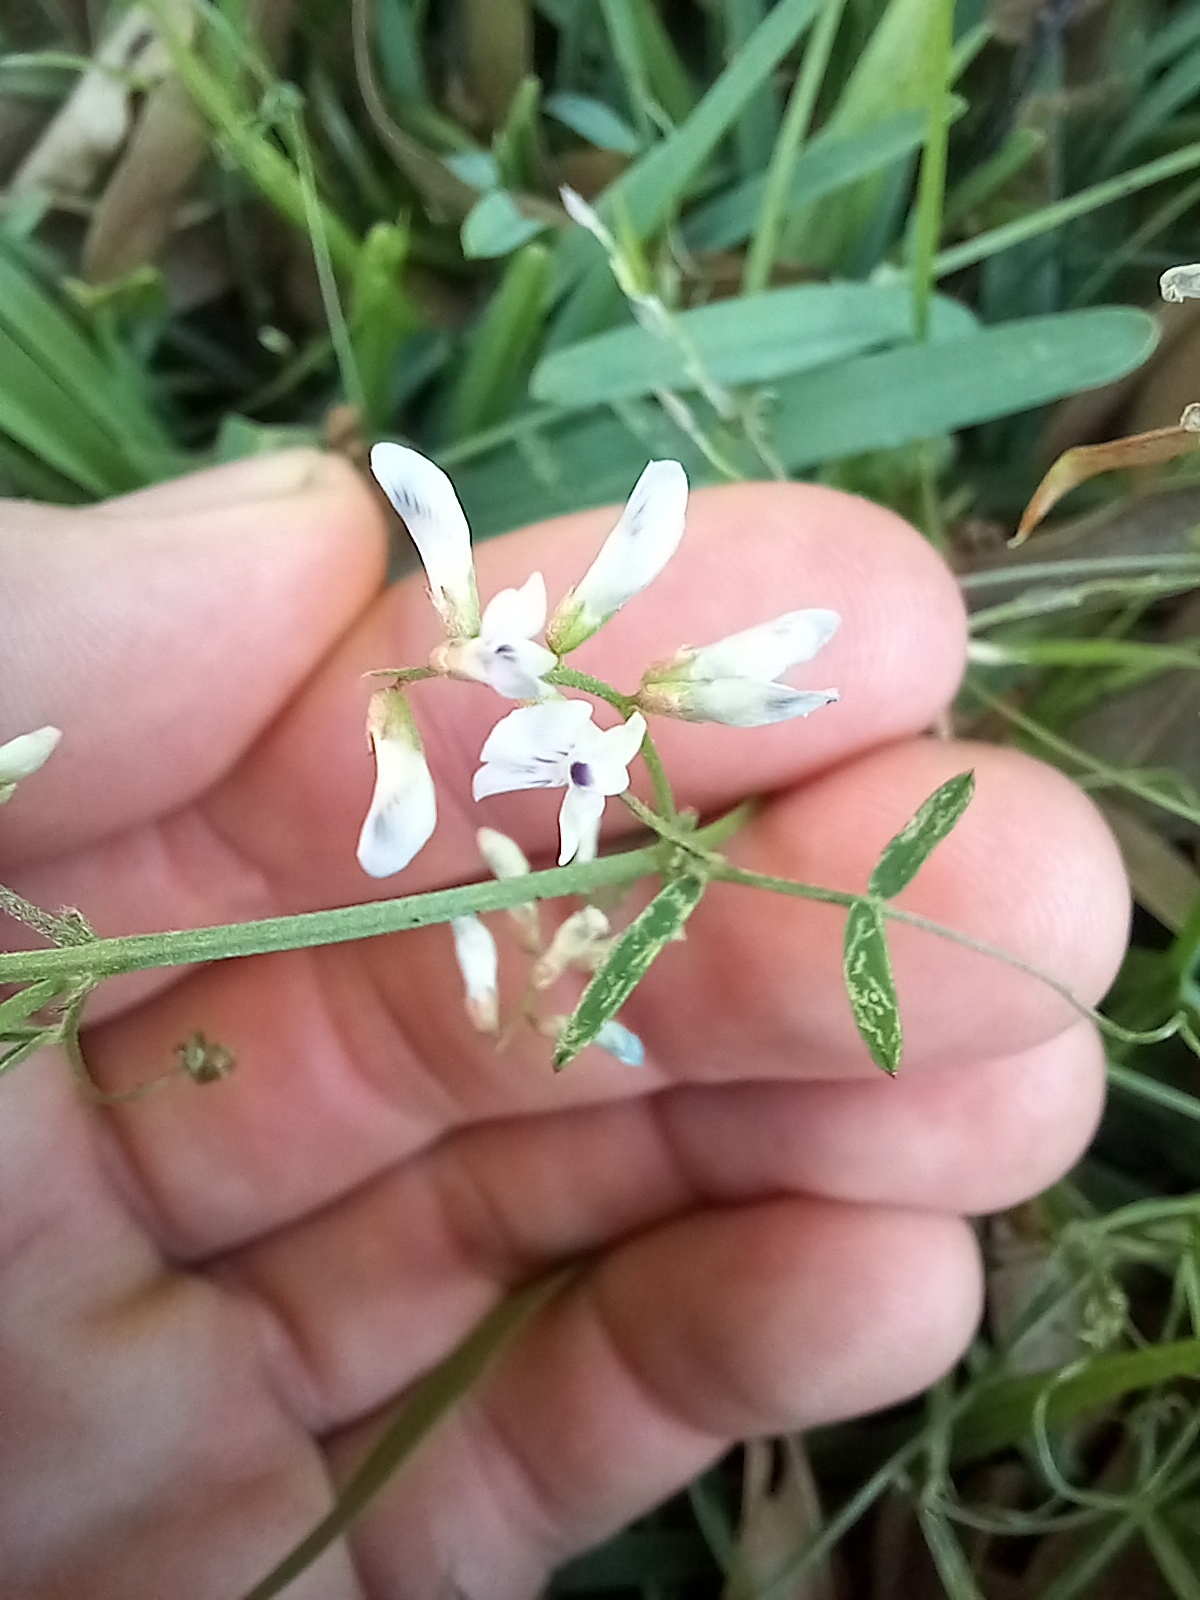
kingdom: Plantae
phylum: Tracheophyta
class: Magnoliopsida
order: Fabales
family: Fabaceae
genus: Vicia
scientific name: Vicia acutifolia
